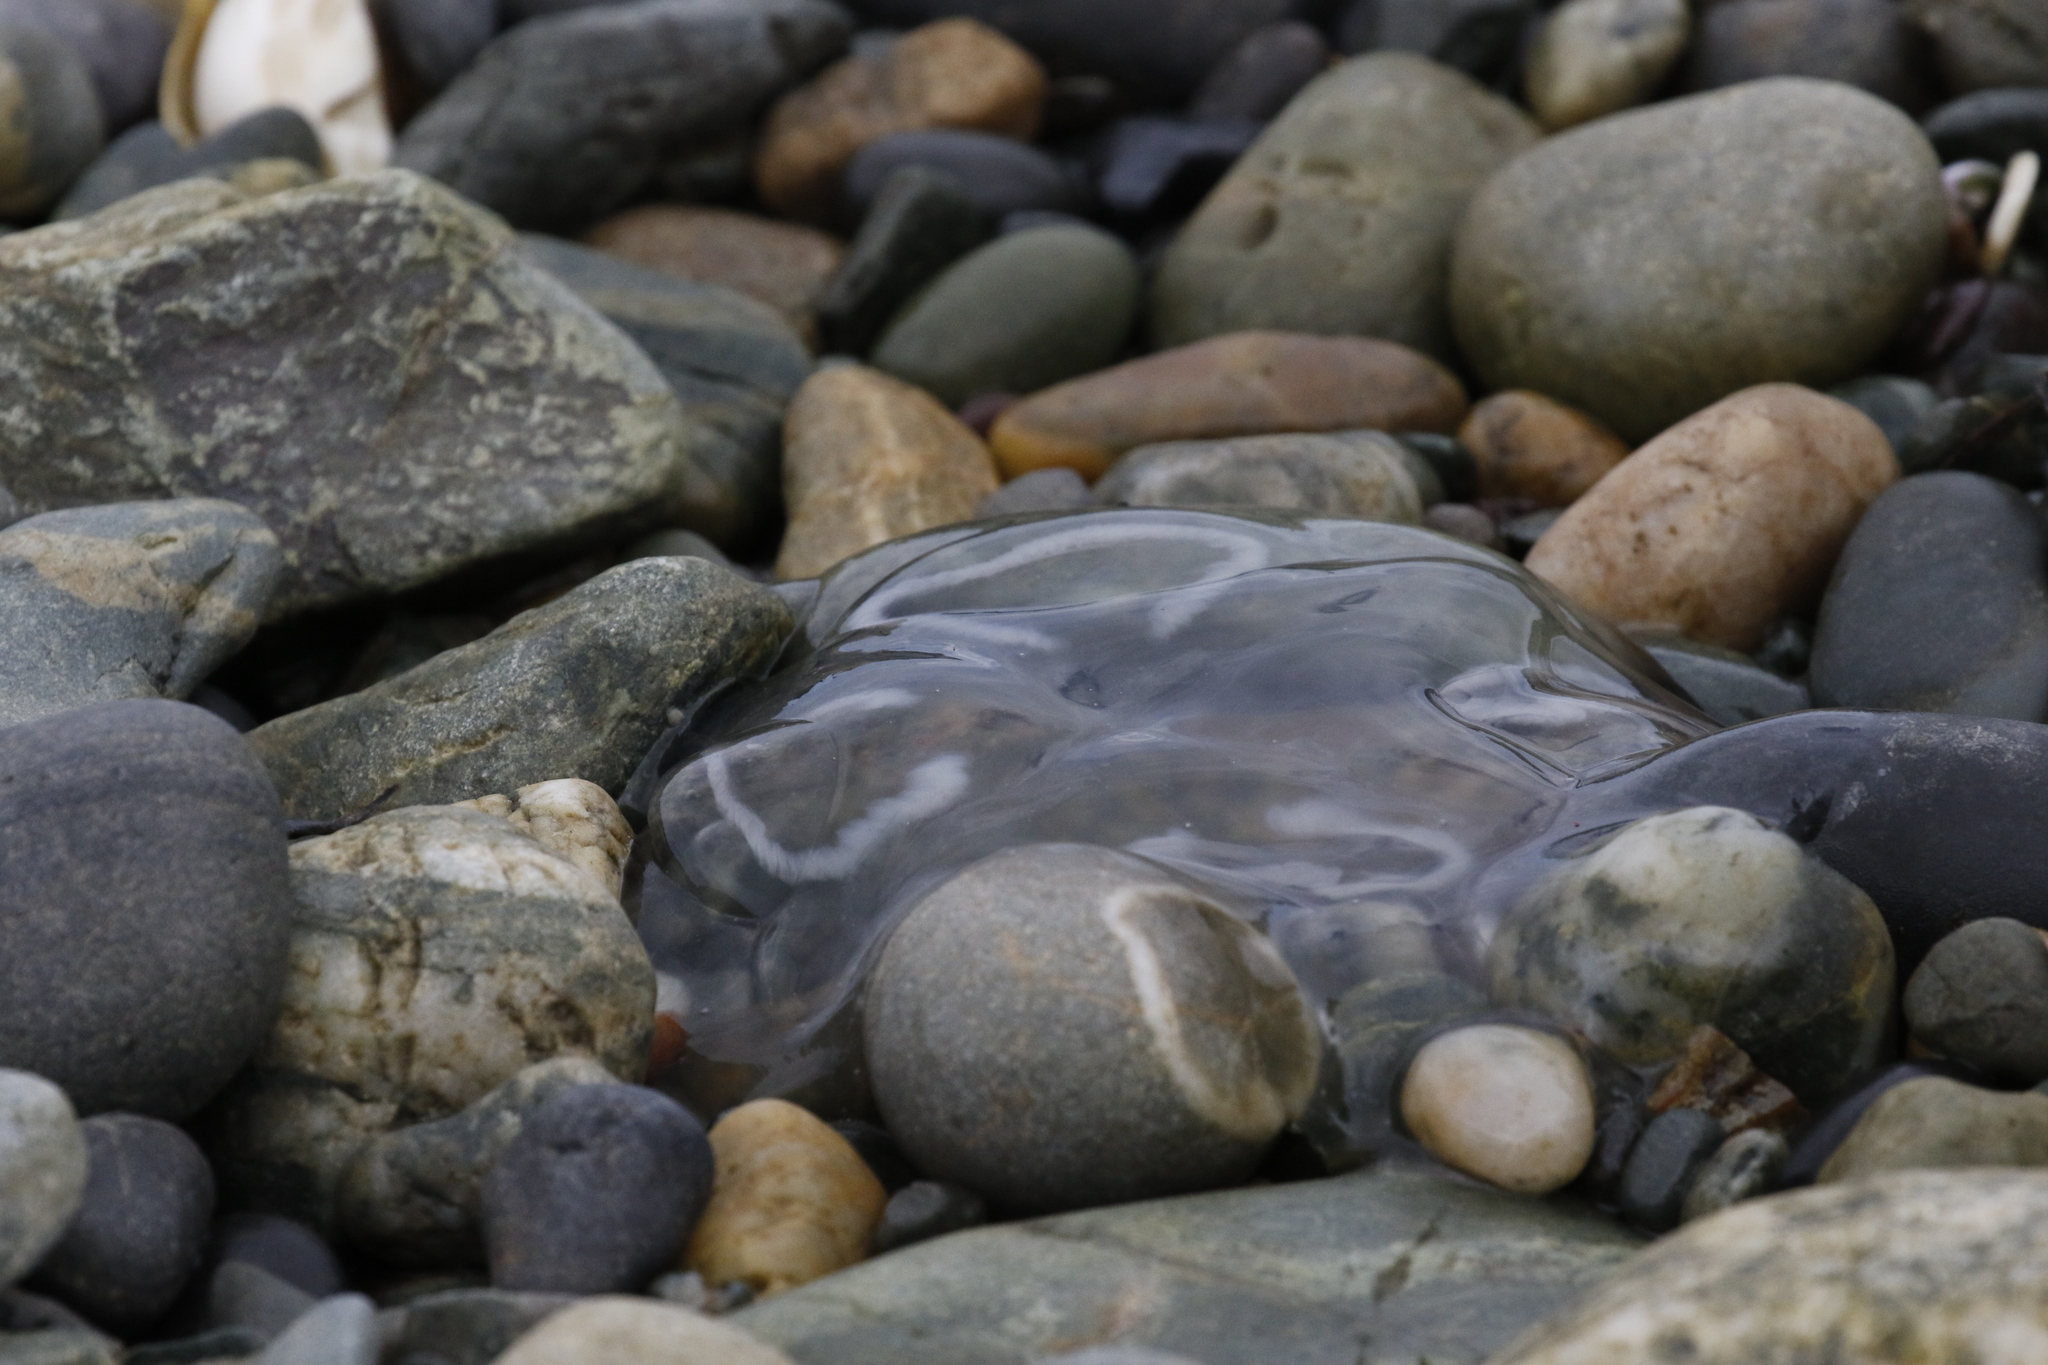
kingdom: Animalia
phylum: Cnidaria
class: Scyphozoa
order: Semaeostomeae
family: Ulmaridae
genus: Aurelia
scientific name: Aurelia aurita
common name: Moon jellyfish
